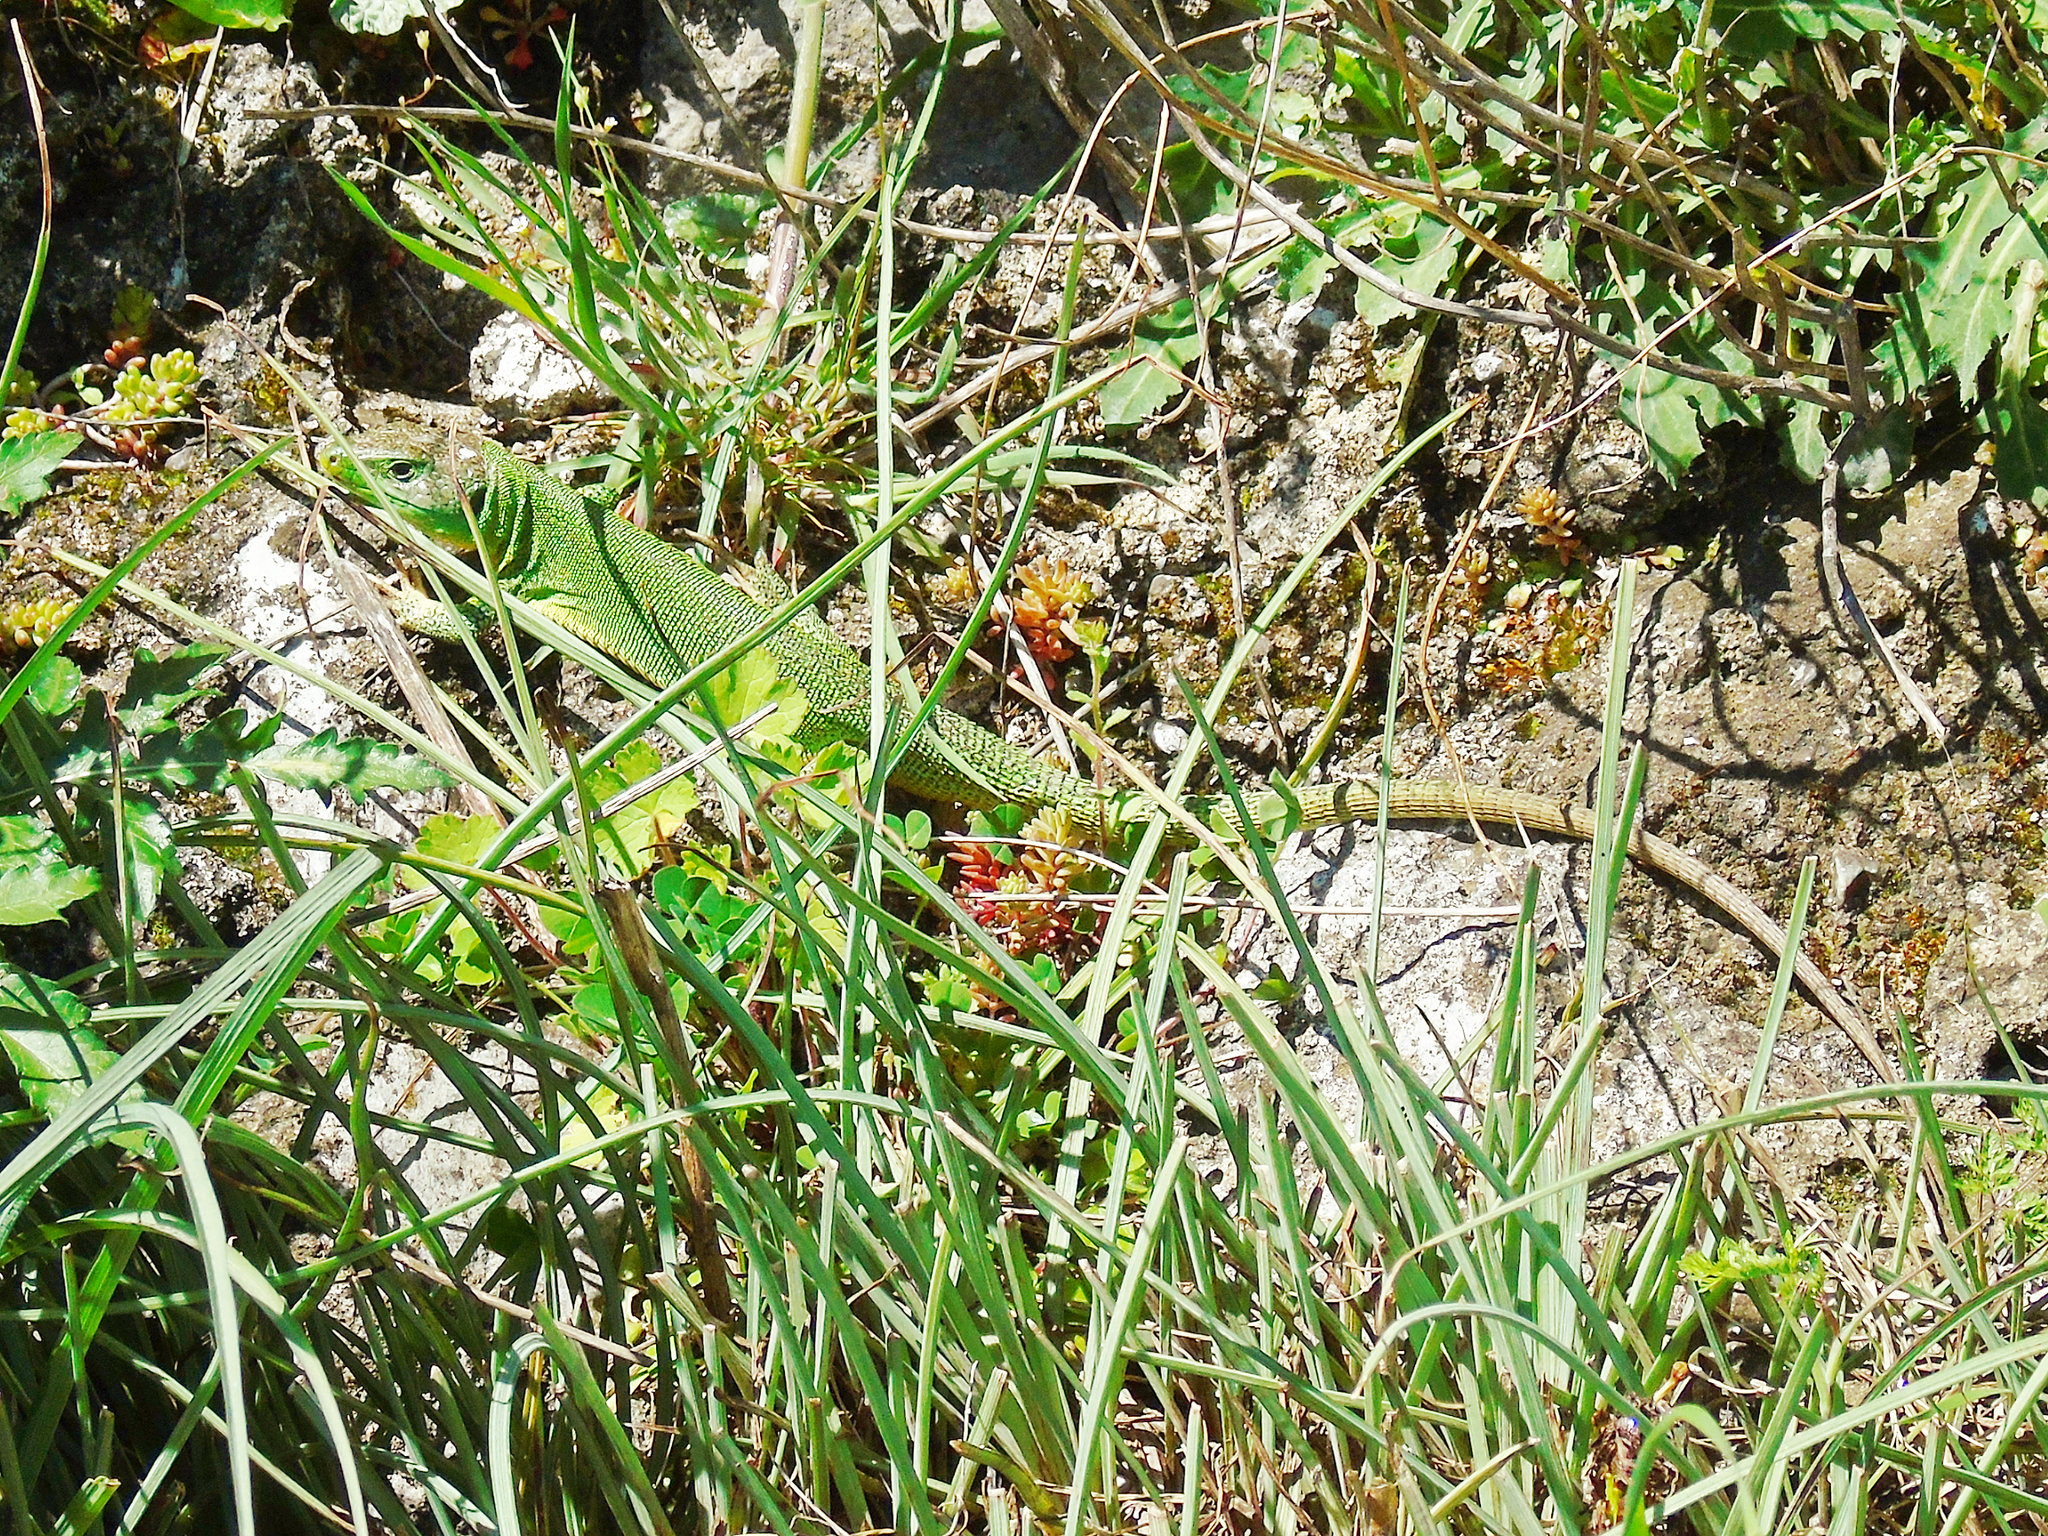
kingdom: Animalia
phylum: Chordata
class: Squamata
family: Lacertidae
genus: Lacerta
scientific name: Lacerta trilineata
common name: Balkan green lizard
